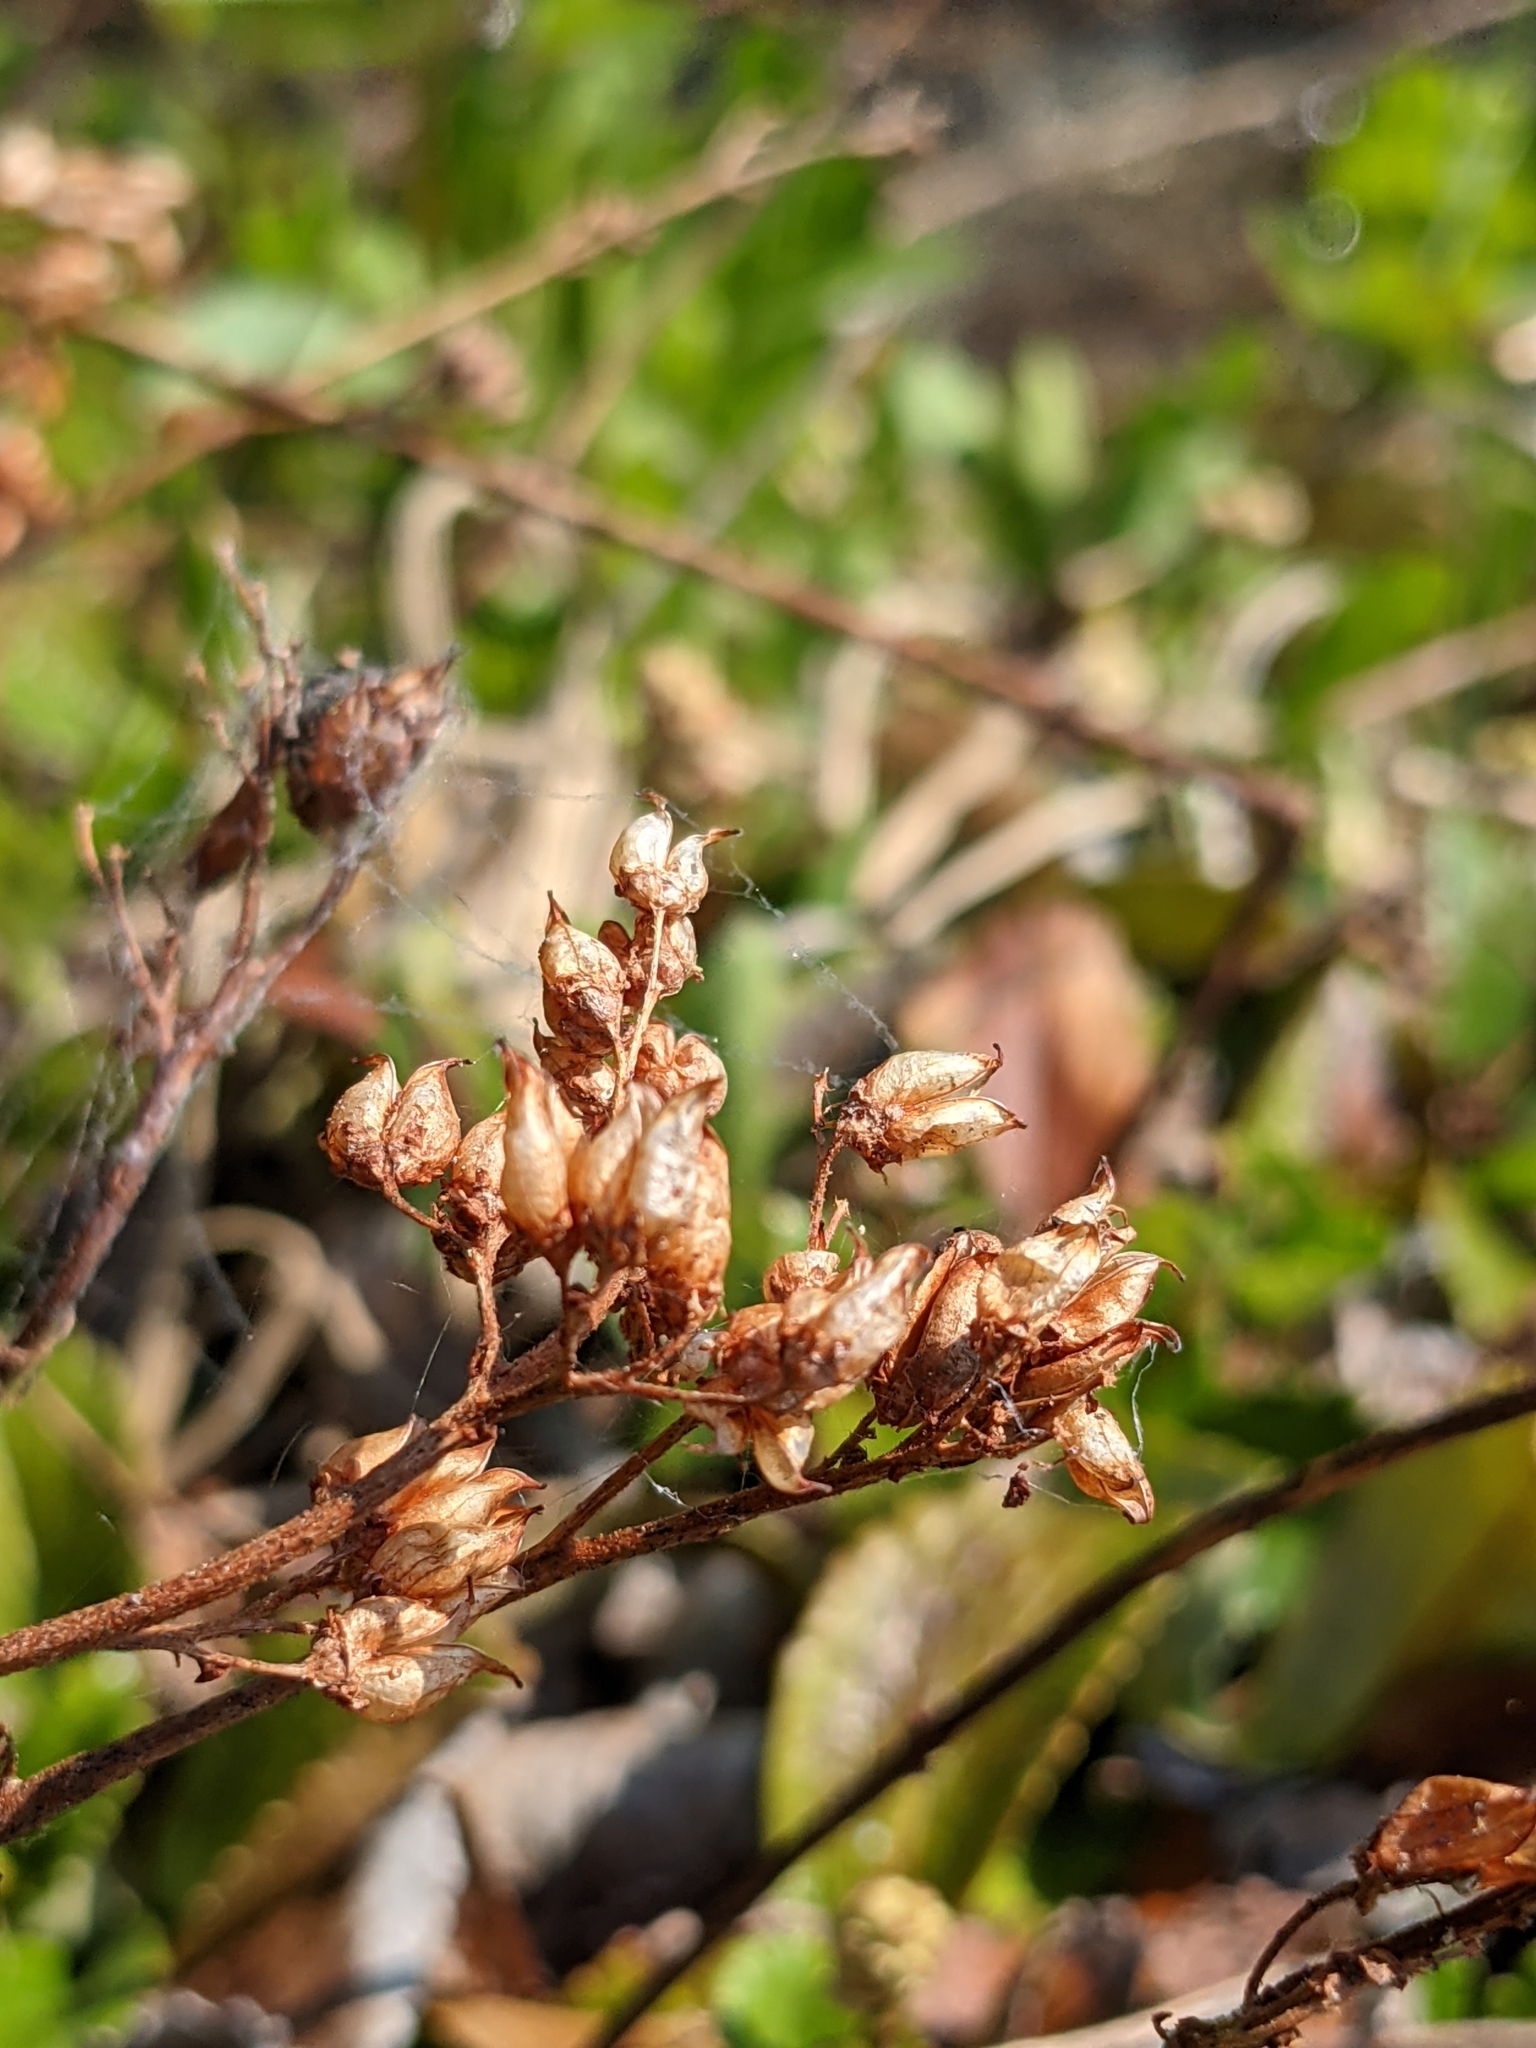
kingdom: Plantae
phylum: Tracheophyta
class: Magnoliopsida
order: Saxifragales
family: Saxifragaceae
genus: Leptarrhena
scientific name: Leptarrhena pyrolifolia
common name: Leatherleaf-saxifrage
